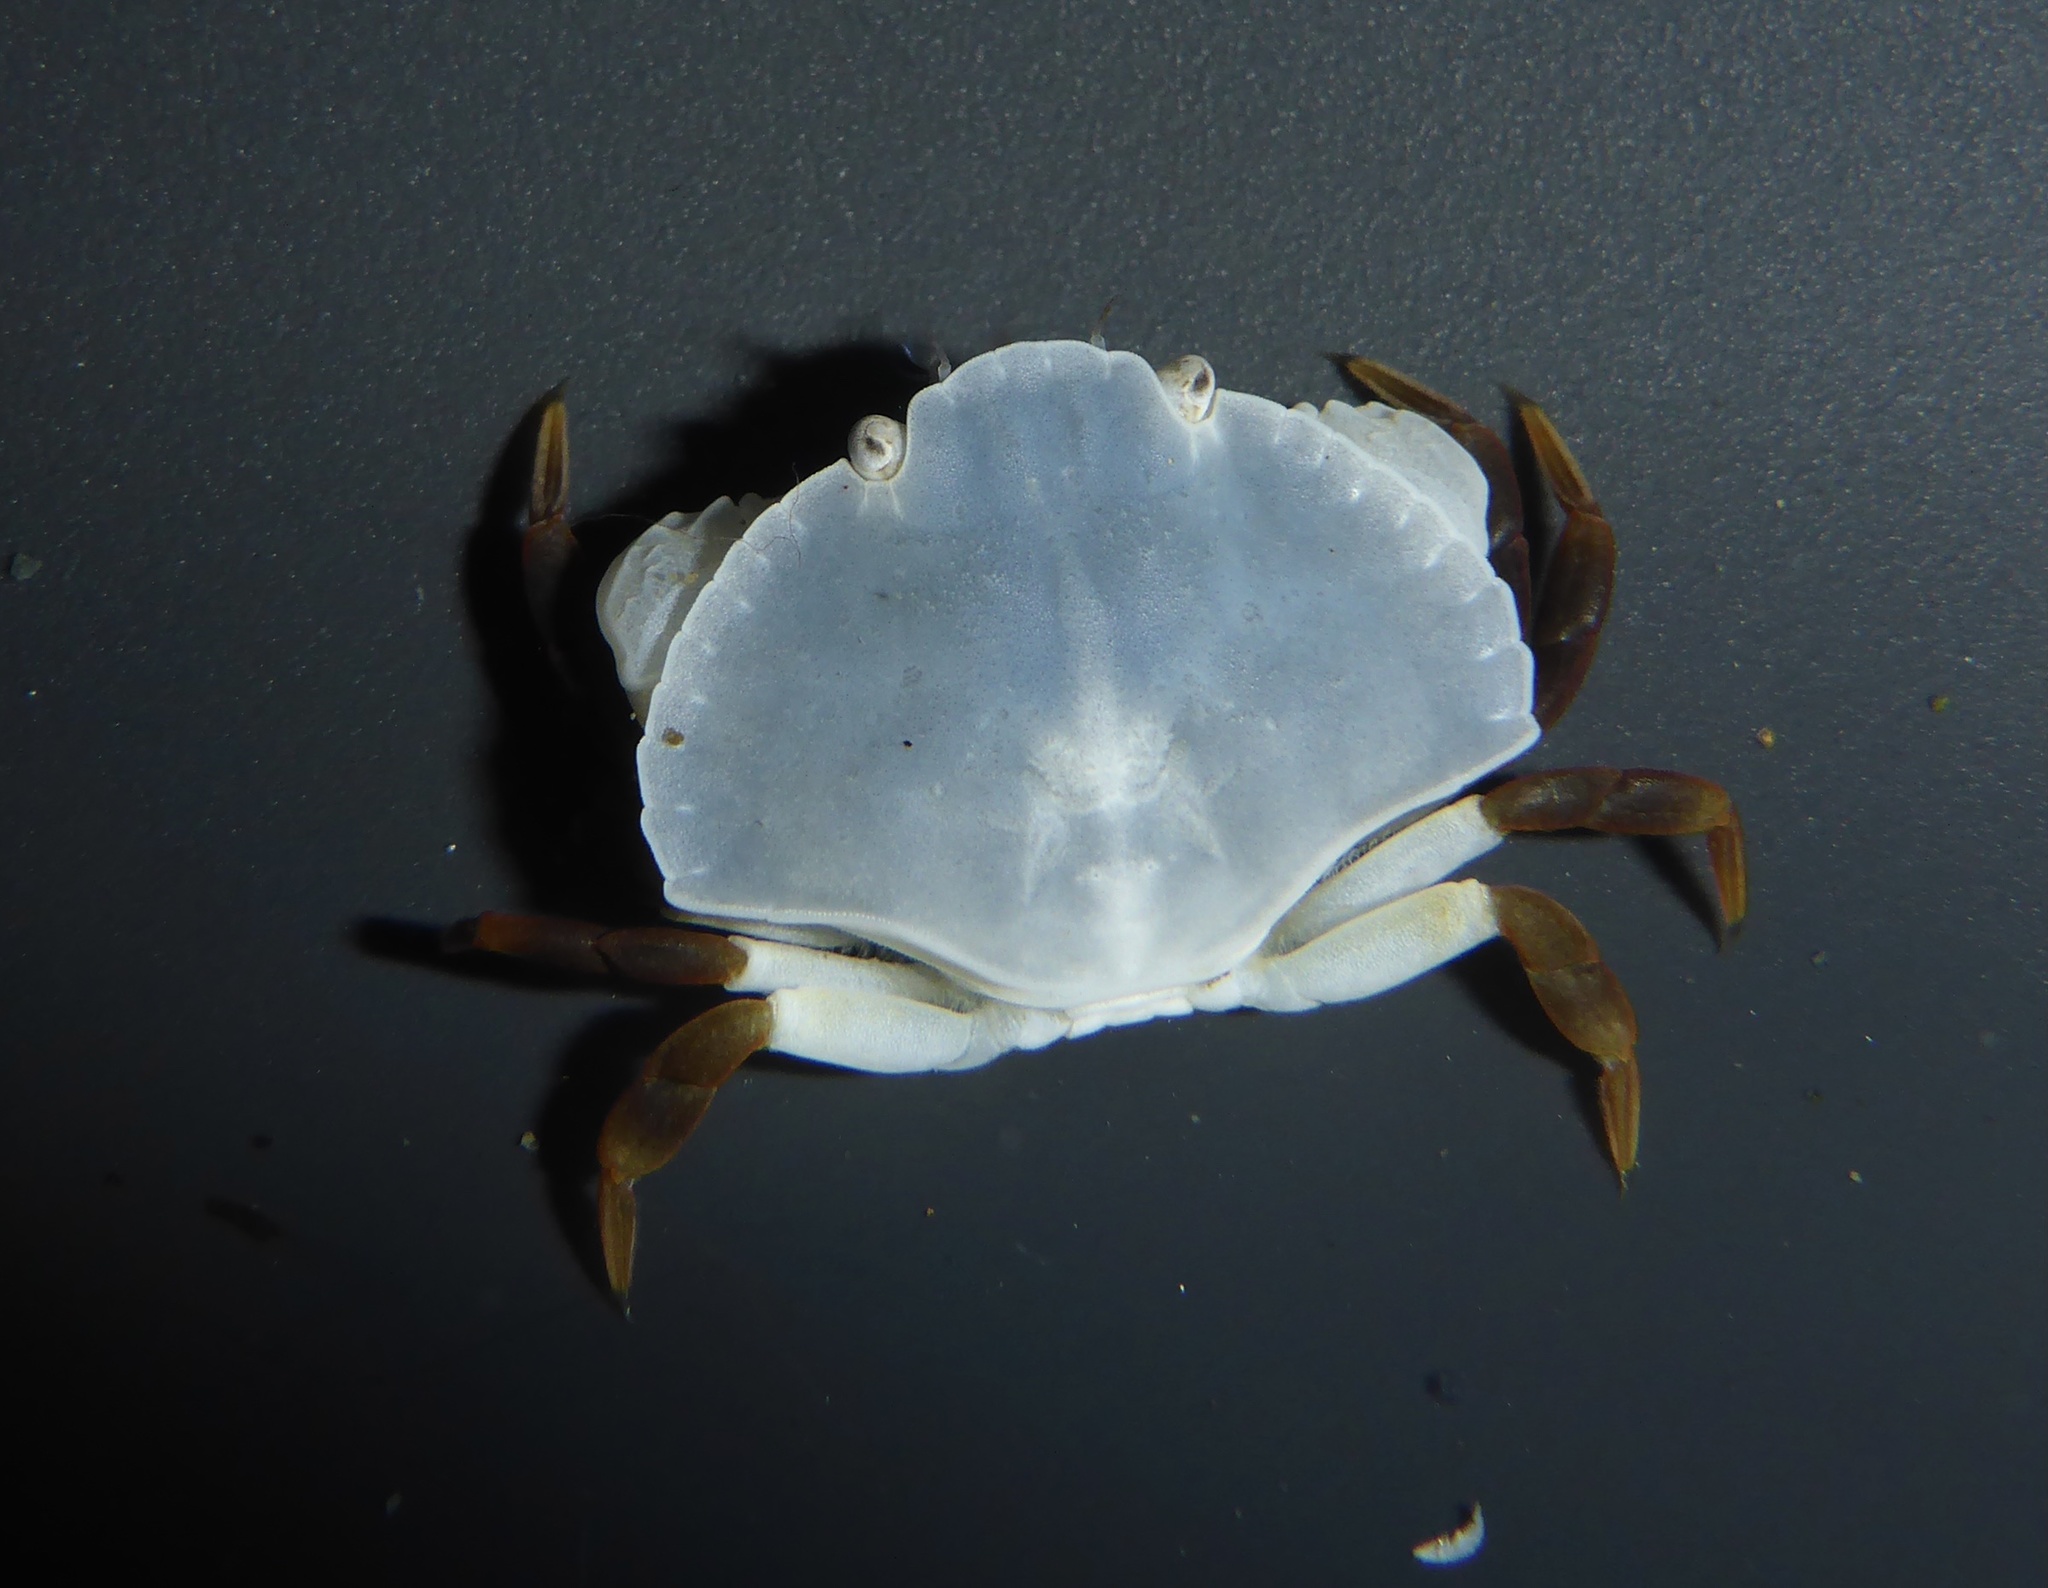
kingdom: Animalia
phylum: Arthropoda
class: Malacostraca
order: Decapoda
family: Cancridae
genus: Cancer
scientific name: Cancer productus
